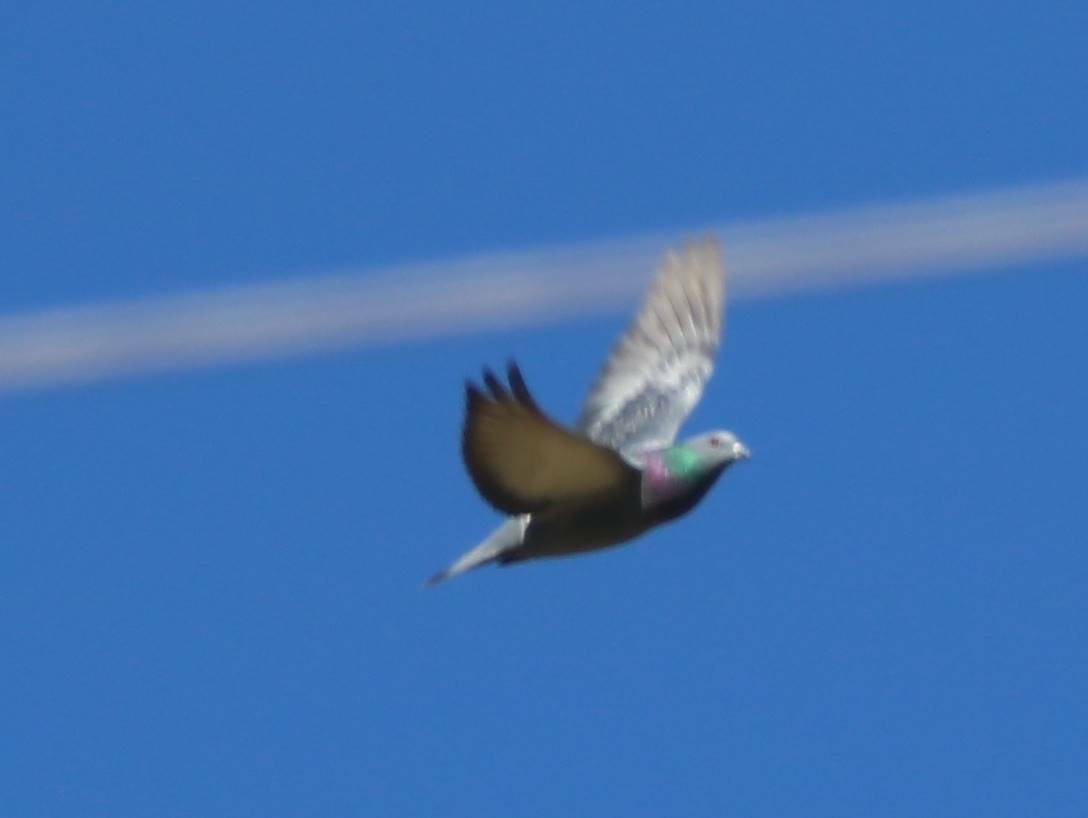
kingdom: Animalia
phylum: Chordata
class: Aves
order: Columbiformes
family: Columbidae
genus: Columba
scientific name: Columba livia
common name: Rock pigeon
